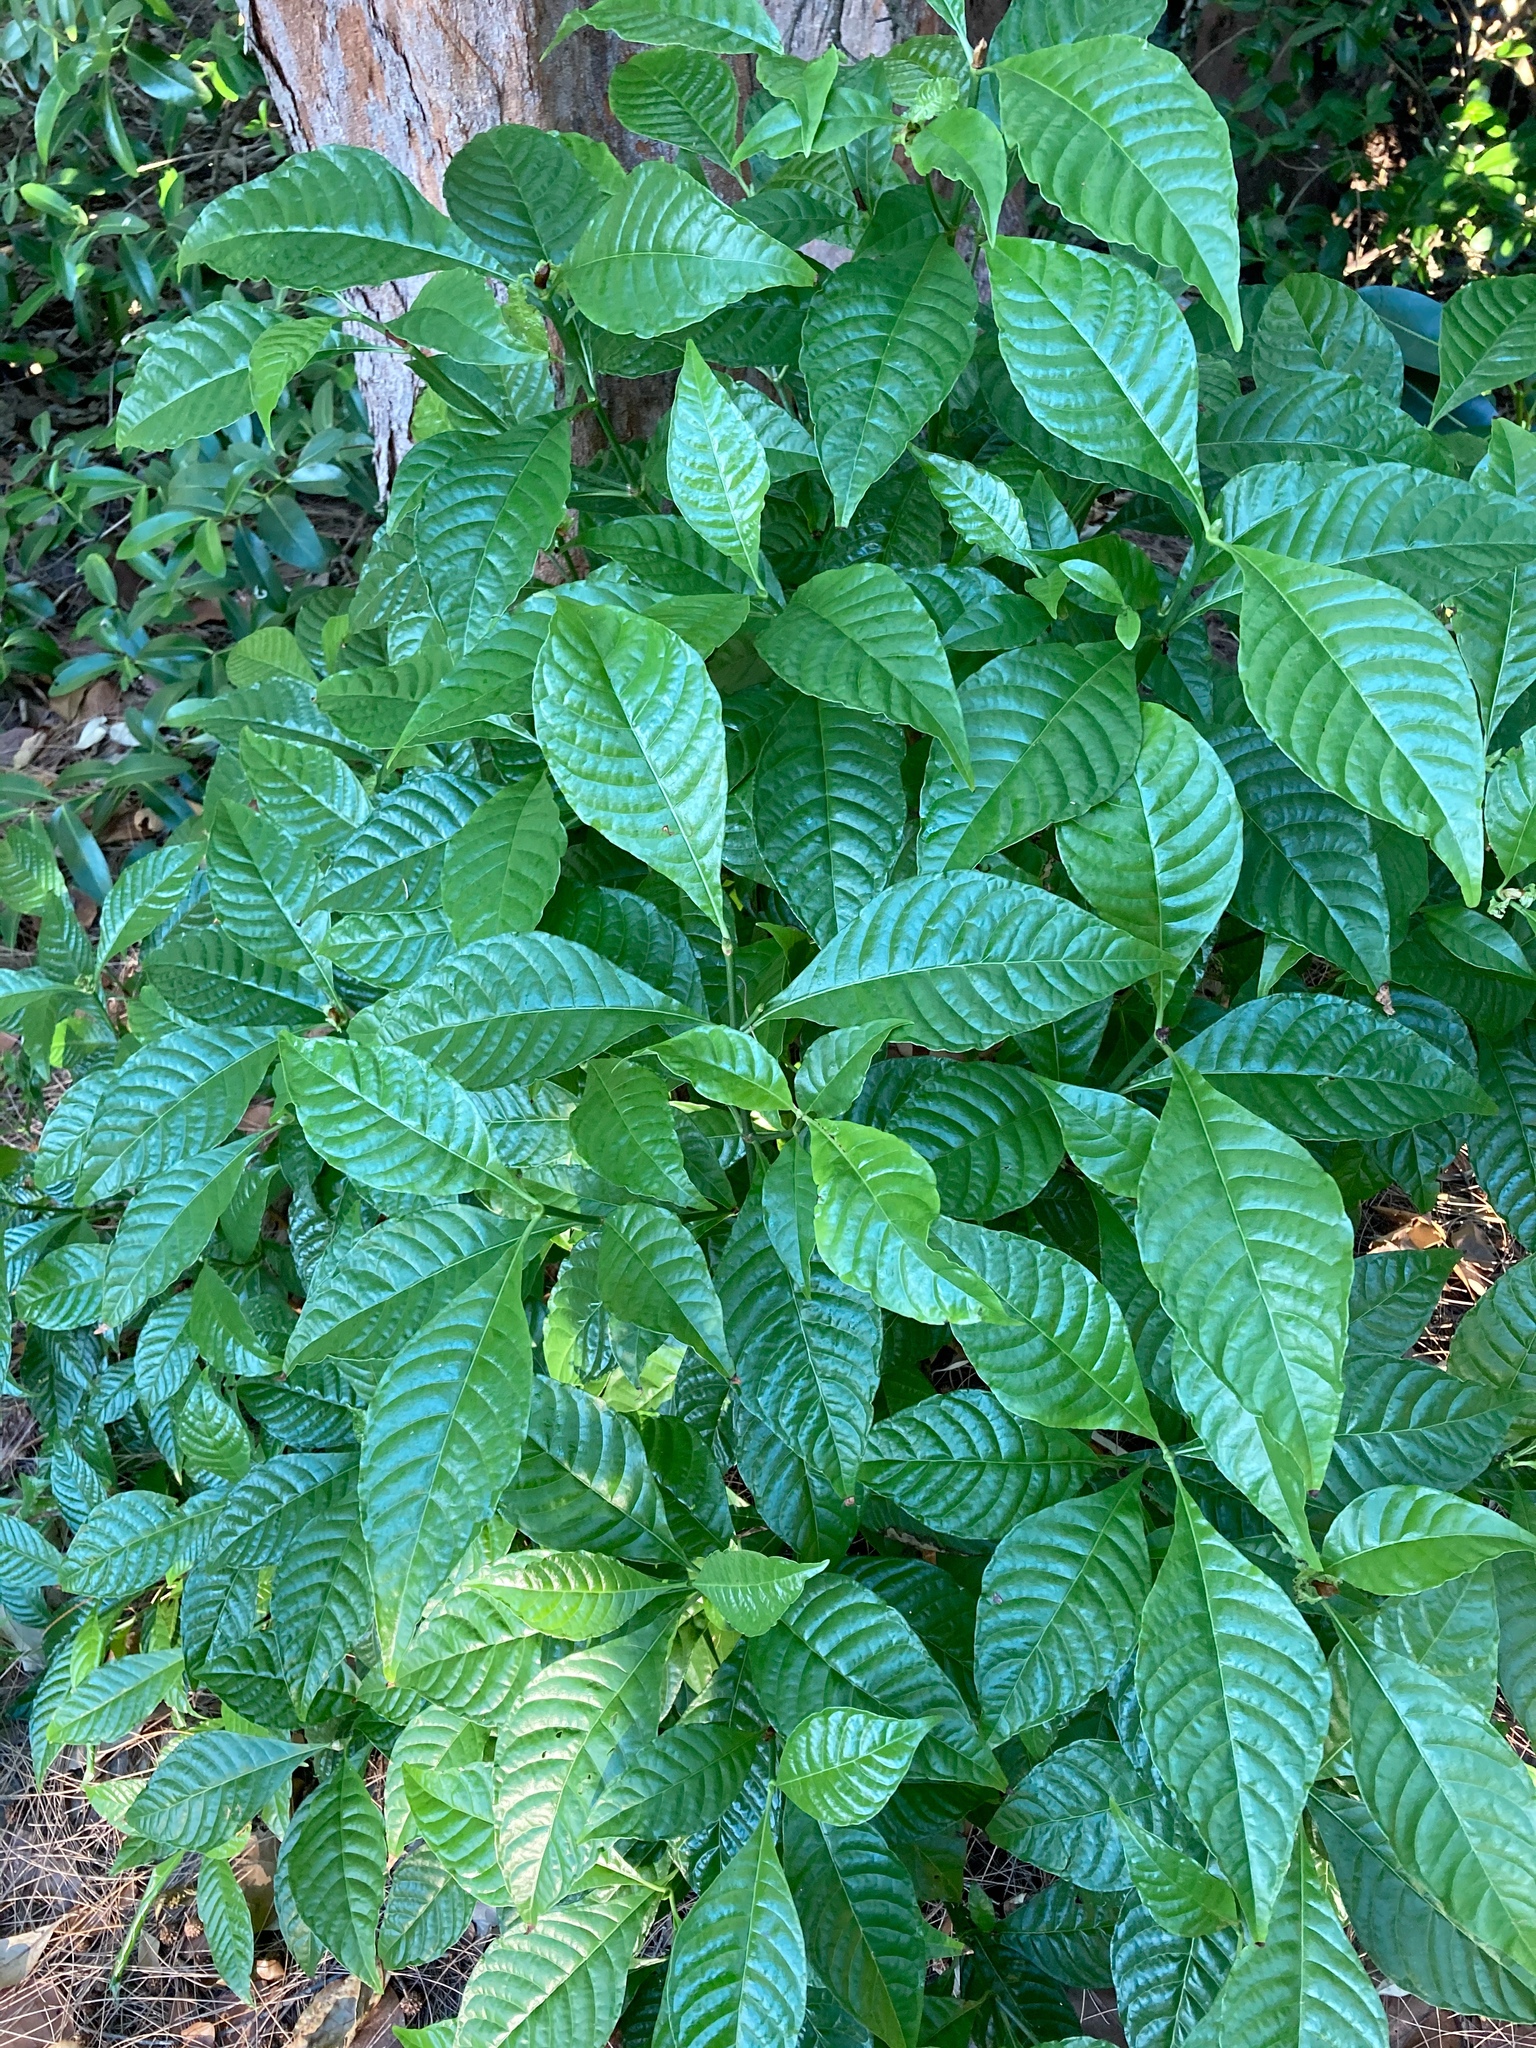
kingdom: Plantae
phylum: Tracheophyta
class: Magnoliopsida
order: Gentianales
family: Rubiaceae
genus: Psychotria
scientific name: Psychotria nervosa
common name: Bastard cankerberry
